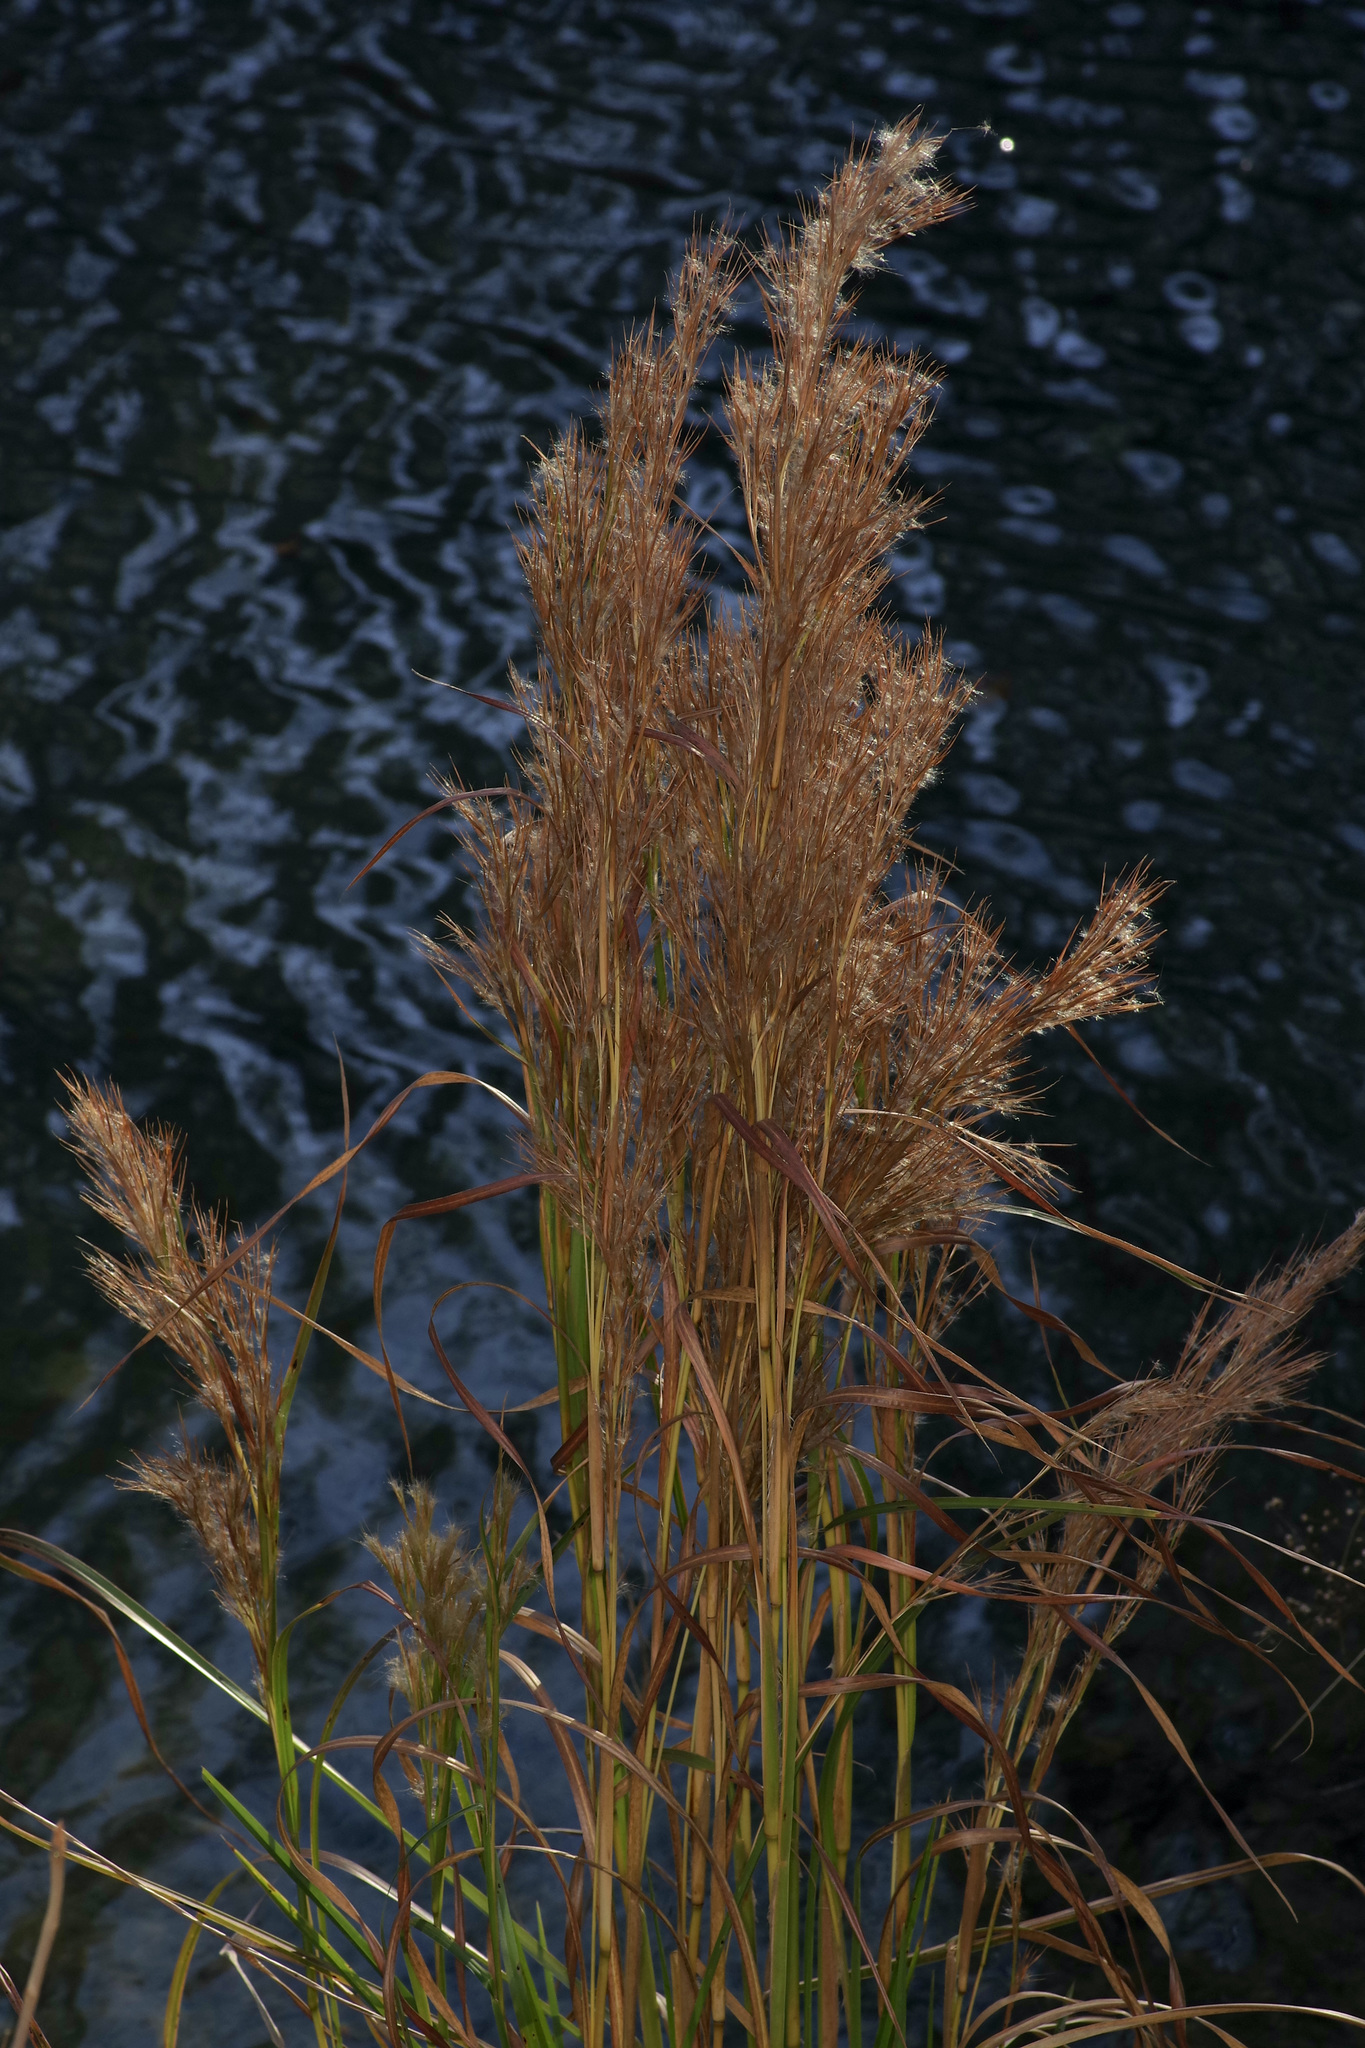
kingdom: Plantae
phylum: Tracheophyta
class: Liliopsida
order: Poales
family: Poaceae
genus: Andropogon
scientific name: Andropogon tenuispatheus
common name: Bushy bluestem
